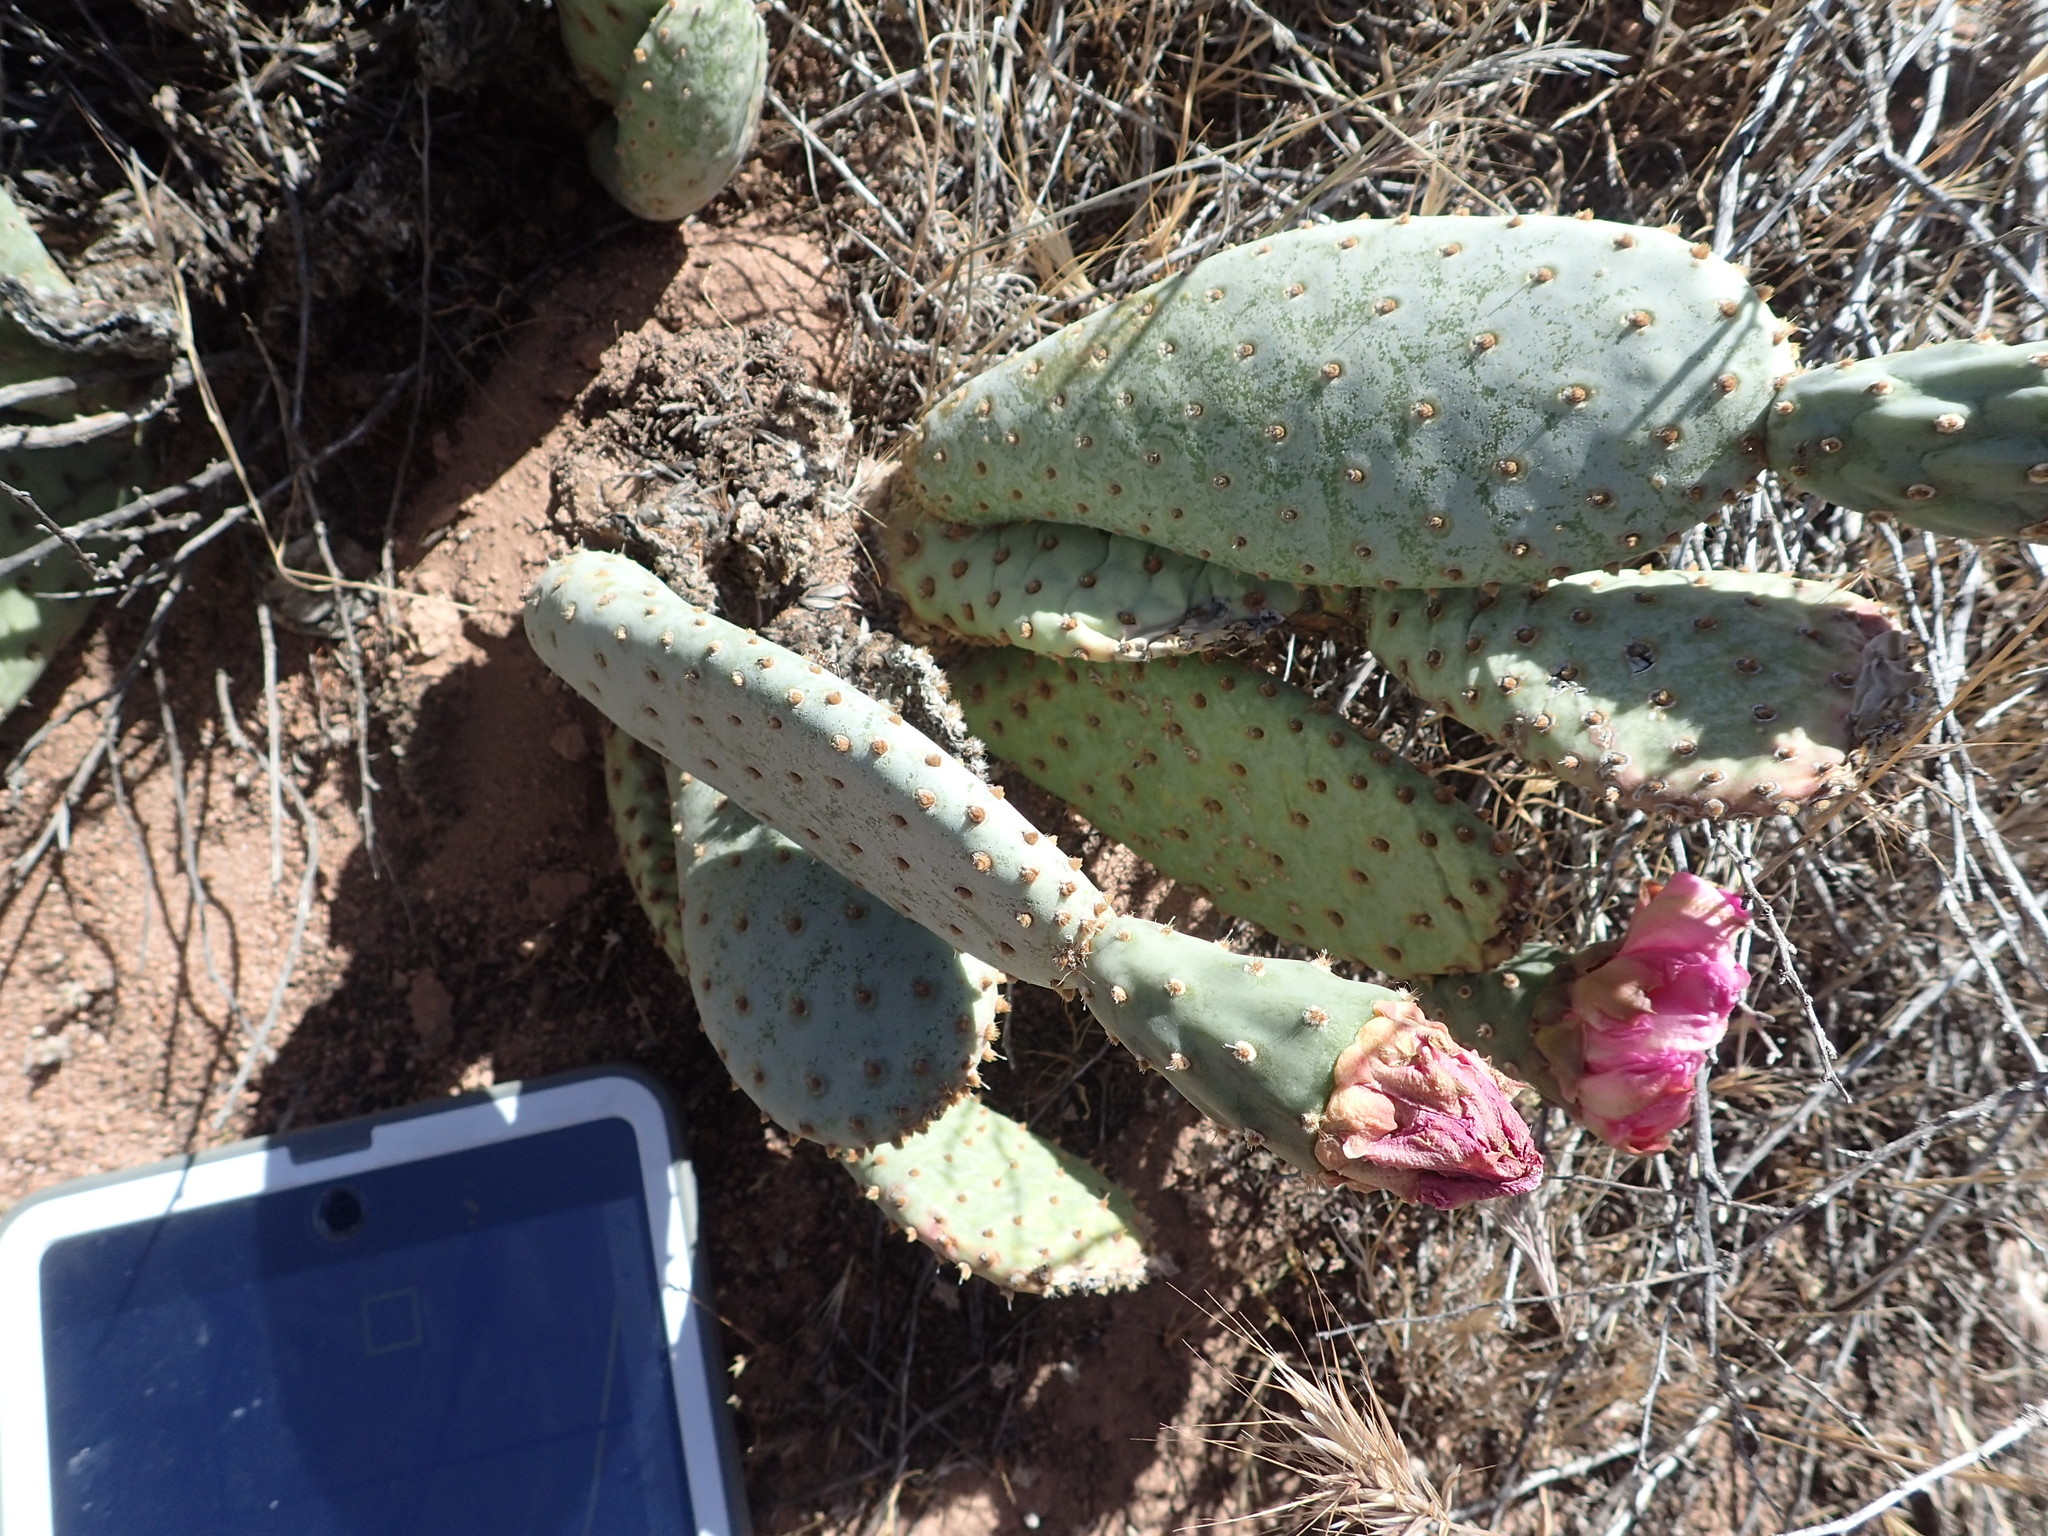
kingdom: Plantae
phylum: Tracheophyta
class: Magnoliopsida
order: Caryophyllales
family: Cactaceae
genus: Opuntia
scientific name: Opuntia basilaris
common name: Beavertail prickly-pear
